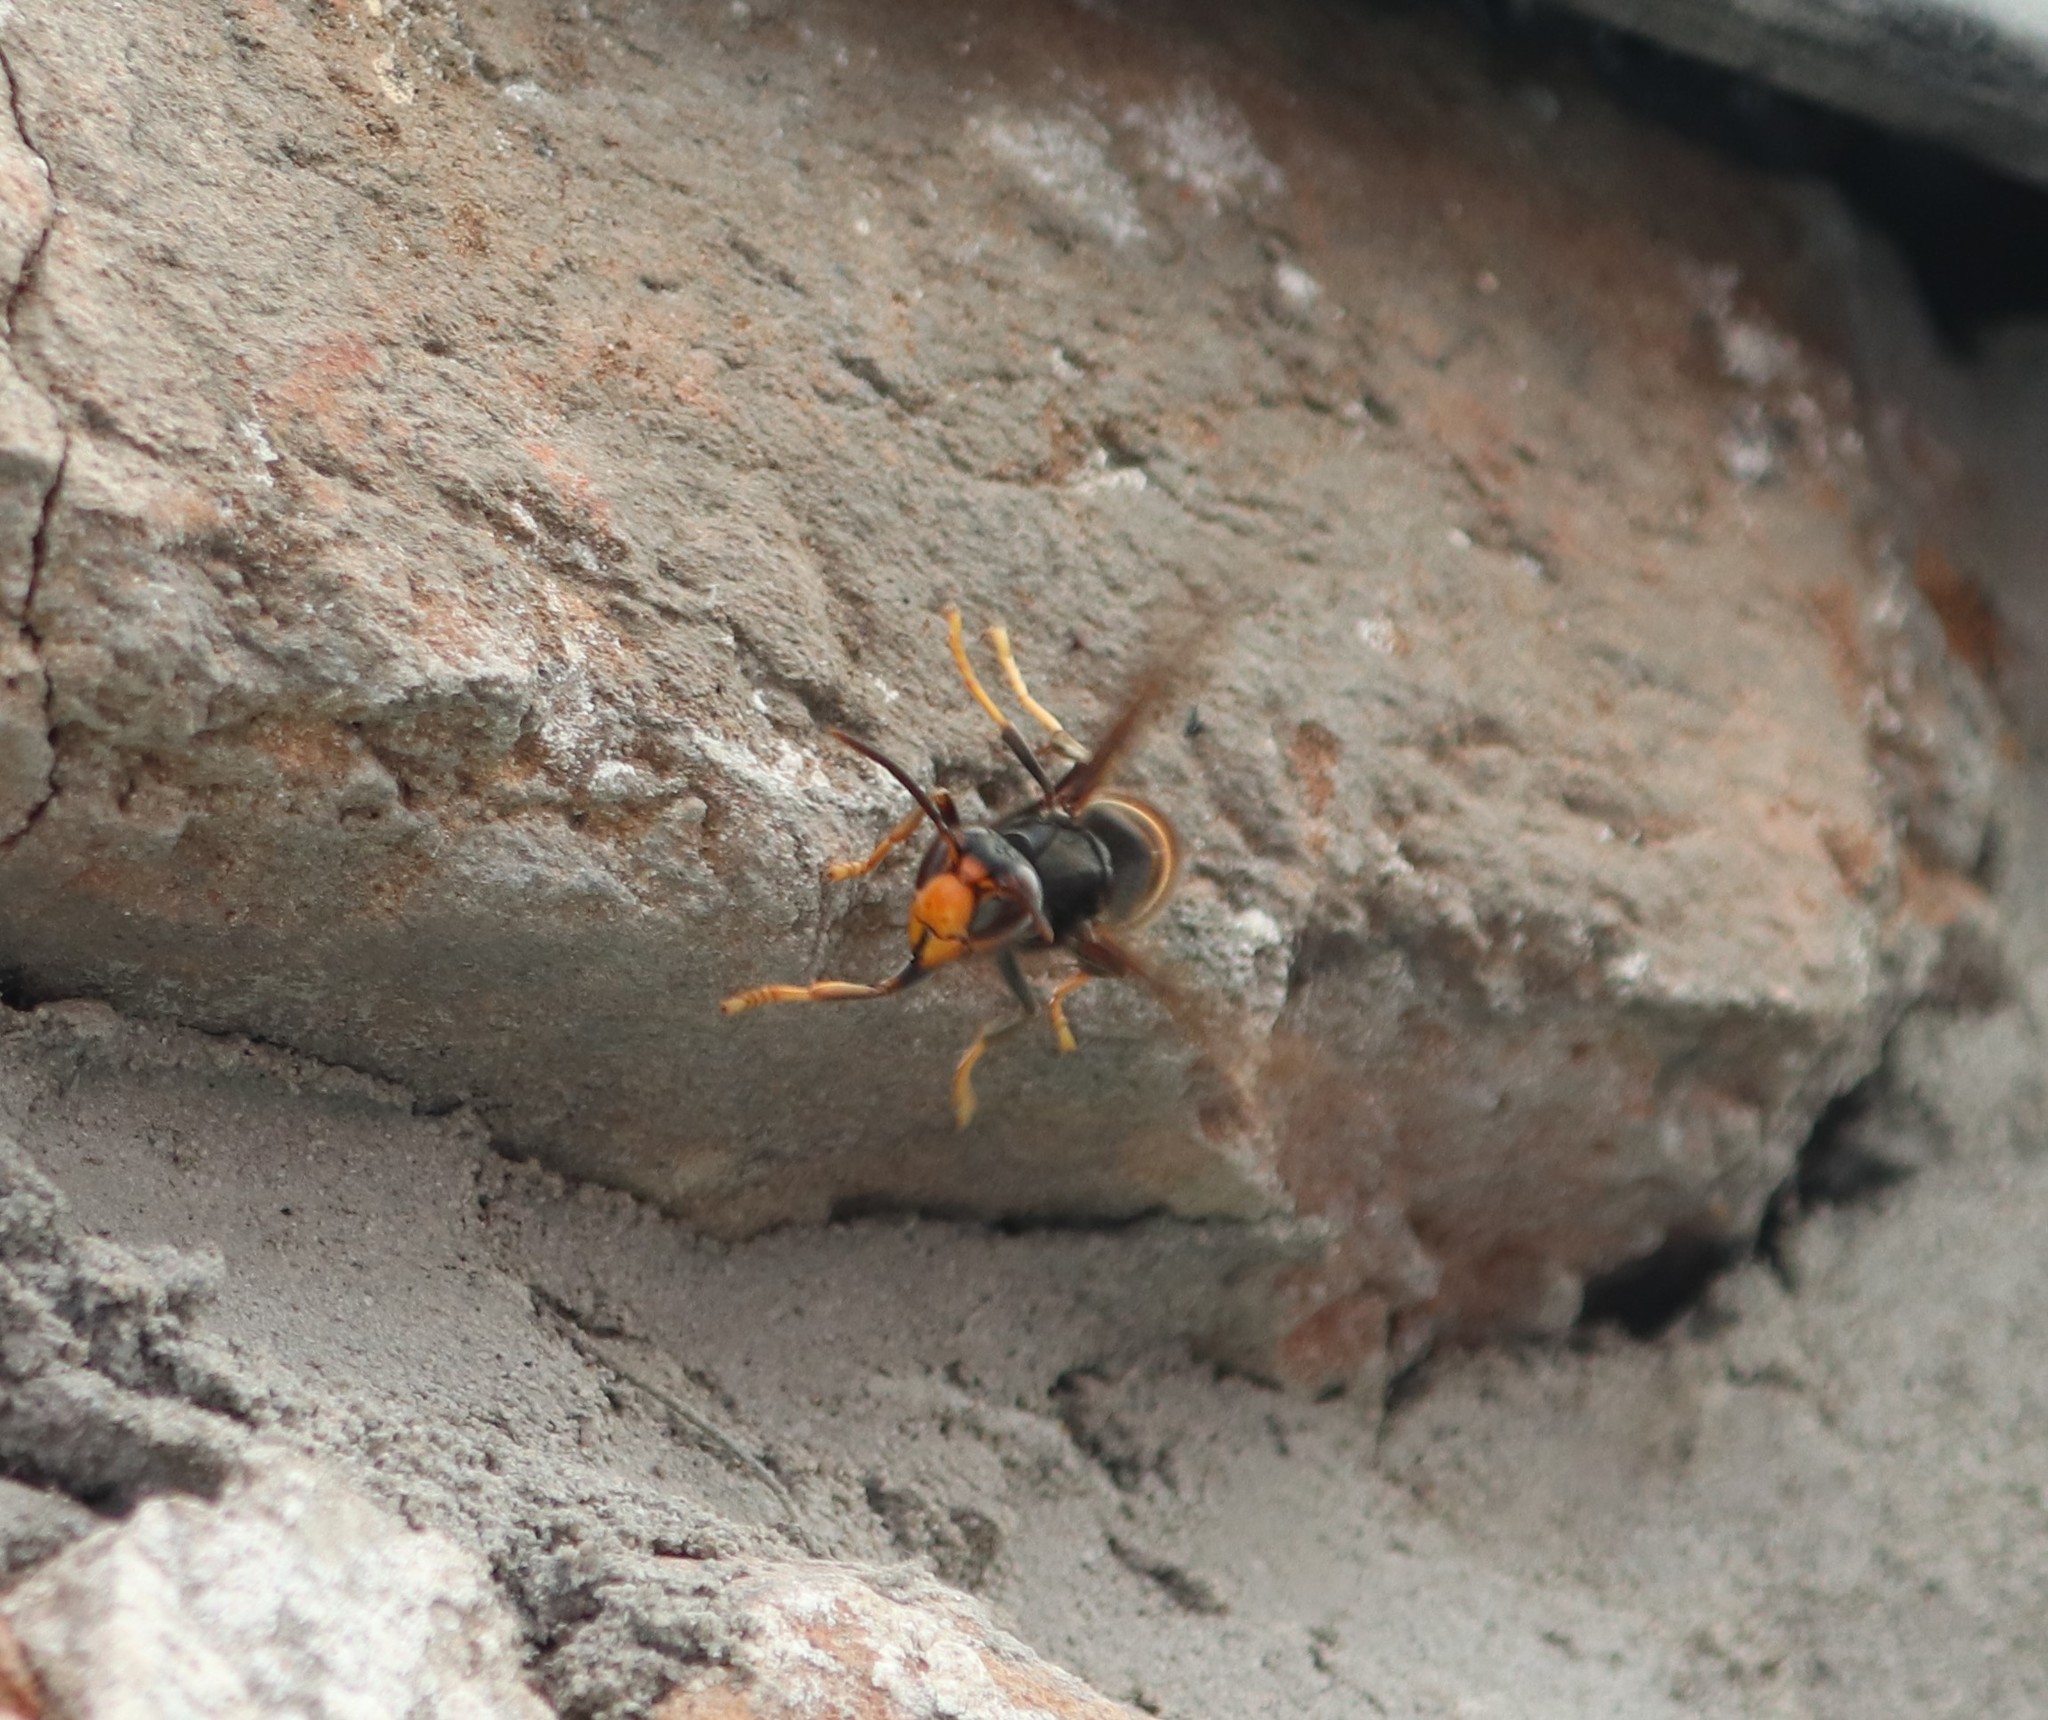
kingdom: Animalia
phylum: Arthropoda
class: Insecta
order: Hymenoptera
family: Vespidae
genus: Vespa
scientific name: Vespa velutina
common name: Asian hornet
